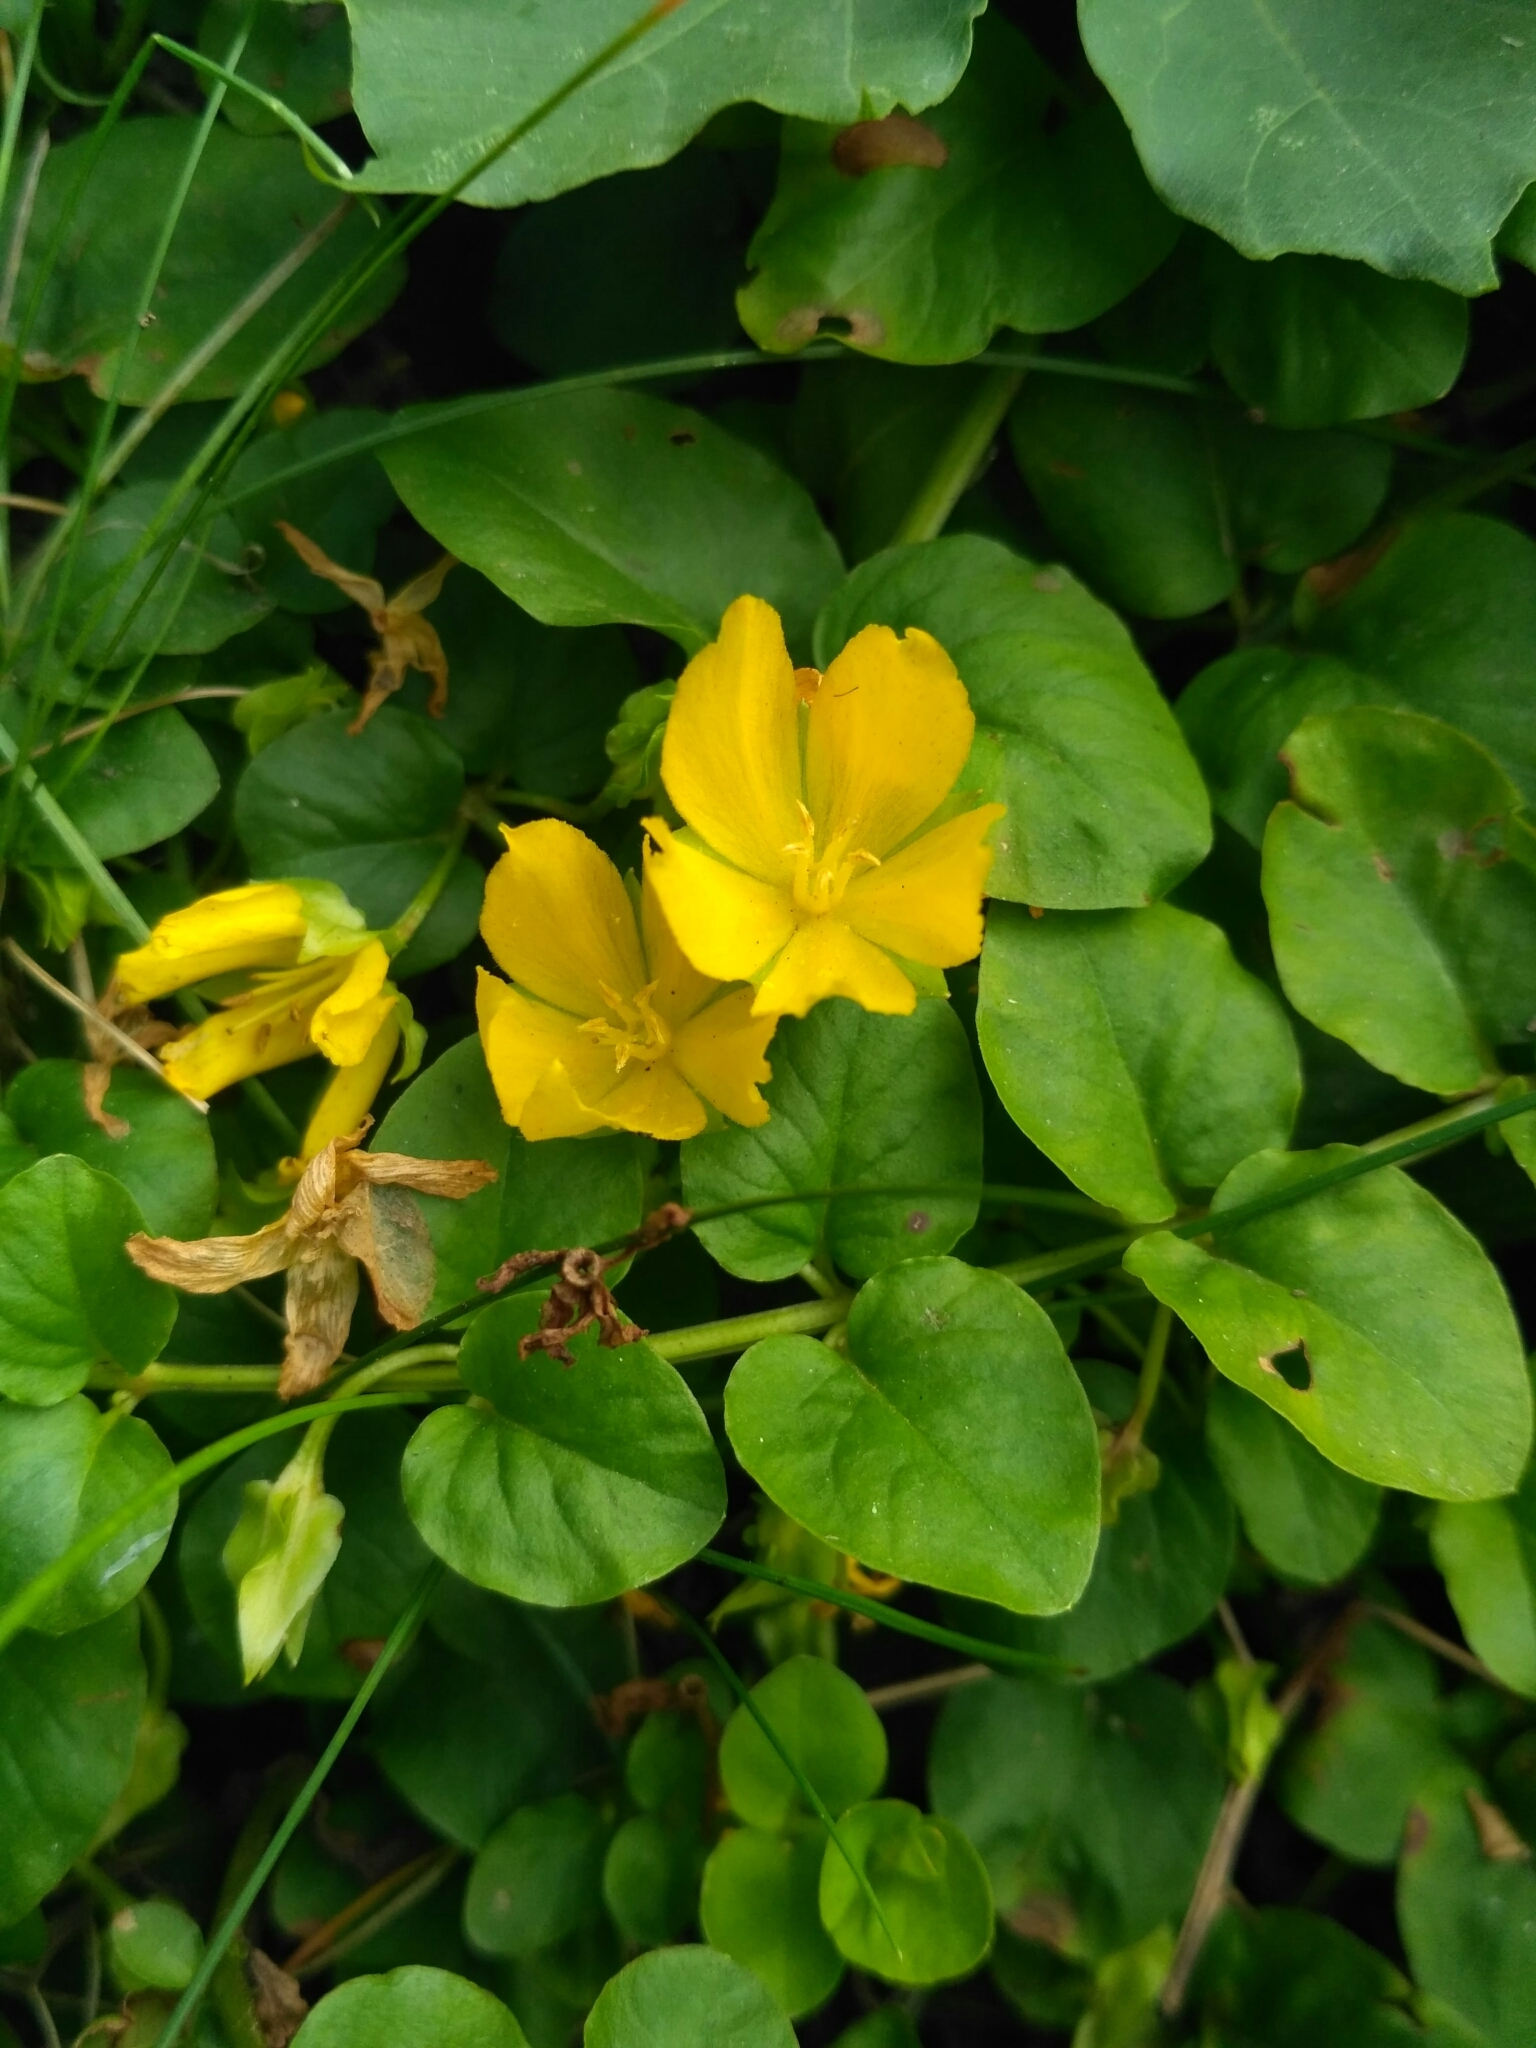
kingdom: Plantae
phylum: Tracheophyta
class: Magnoliopsida
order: Ericales
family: Primulaceae
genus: Lysimachia
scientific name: Lysimachia nummularia
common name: Moneywort
